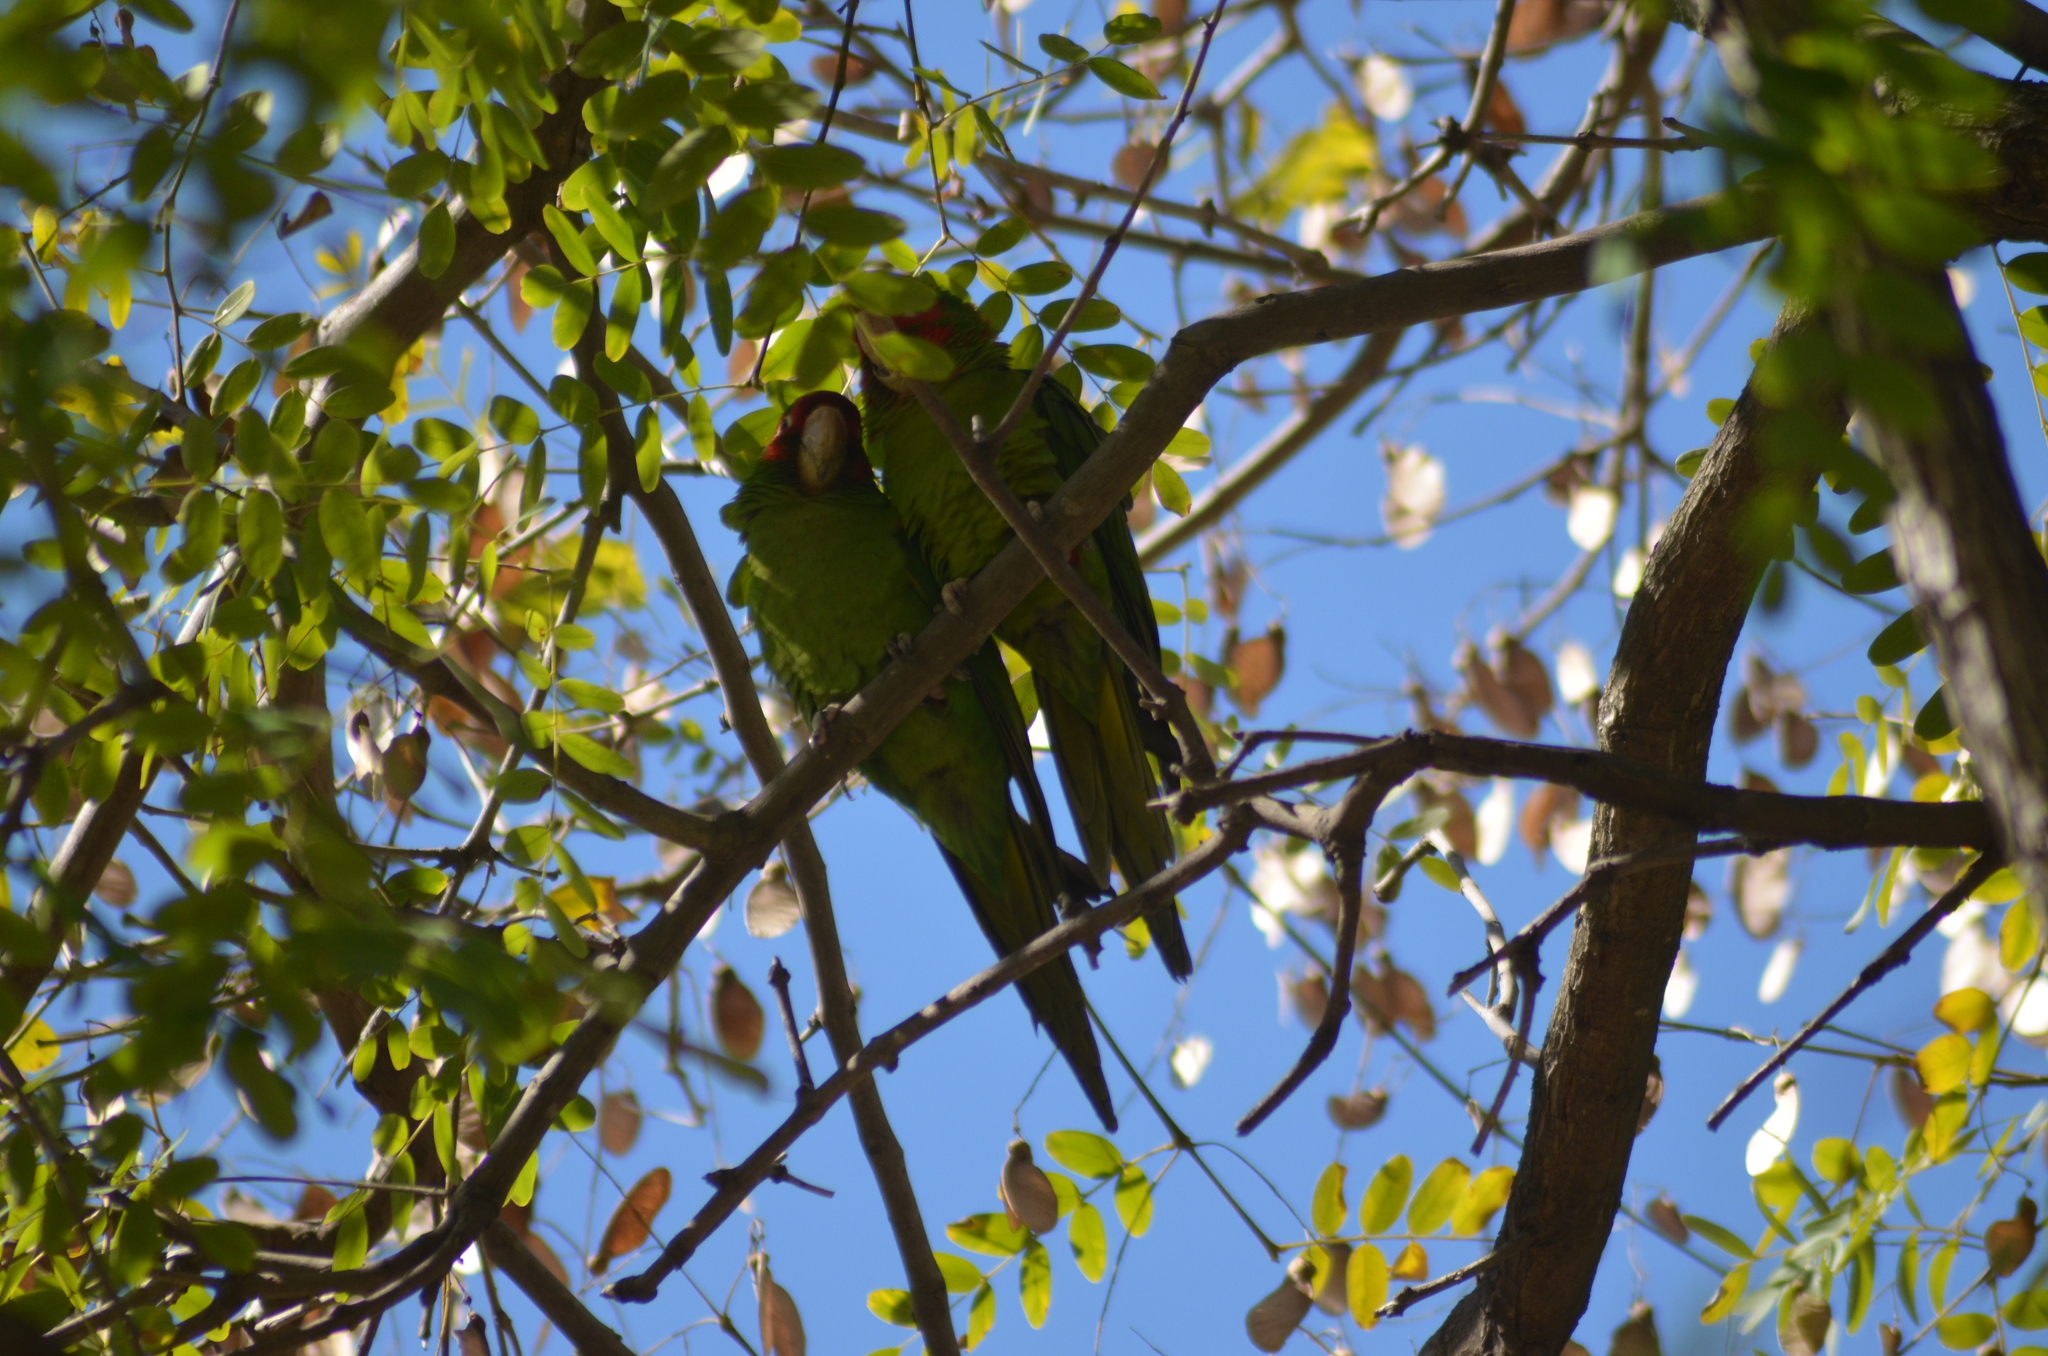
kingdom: Animalia
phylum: Chordata
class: Aves
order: Psittaciformes
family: Psittacidae
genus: Aratinga
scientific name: Aratinga mitrata
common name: Mitred parakeet
